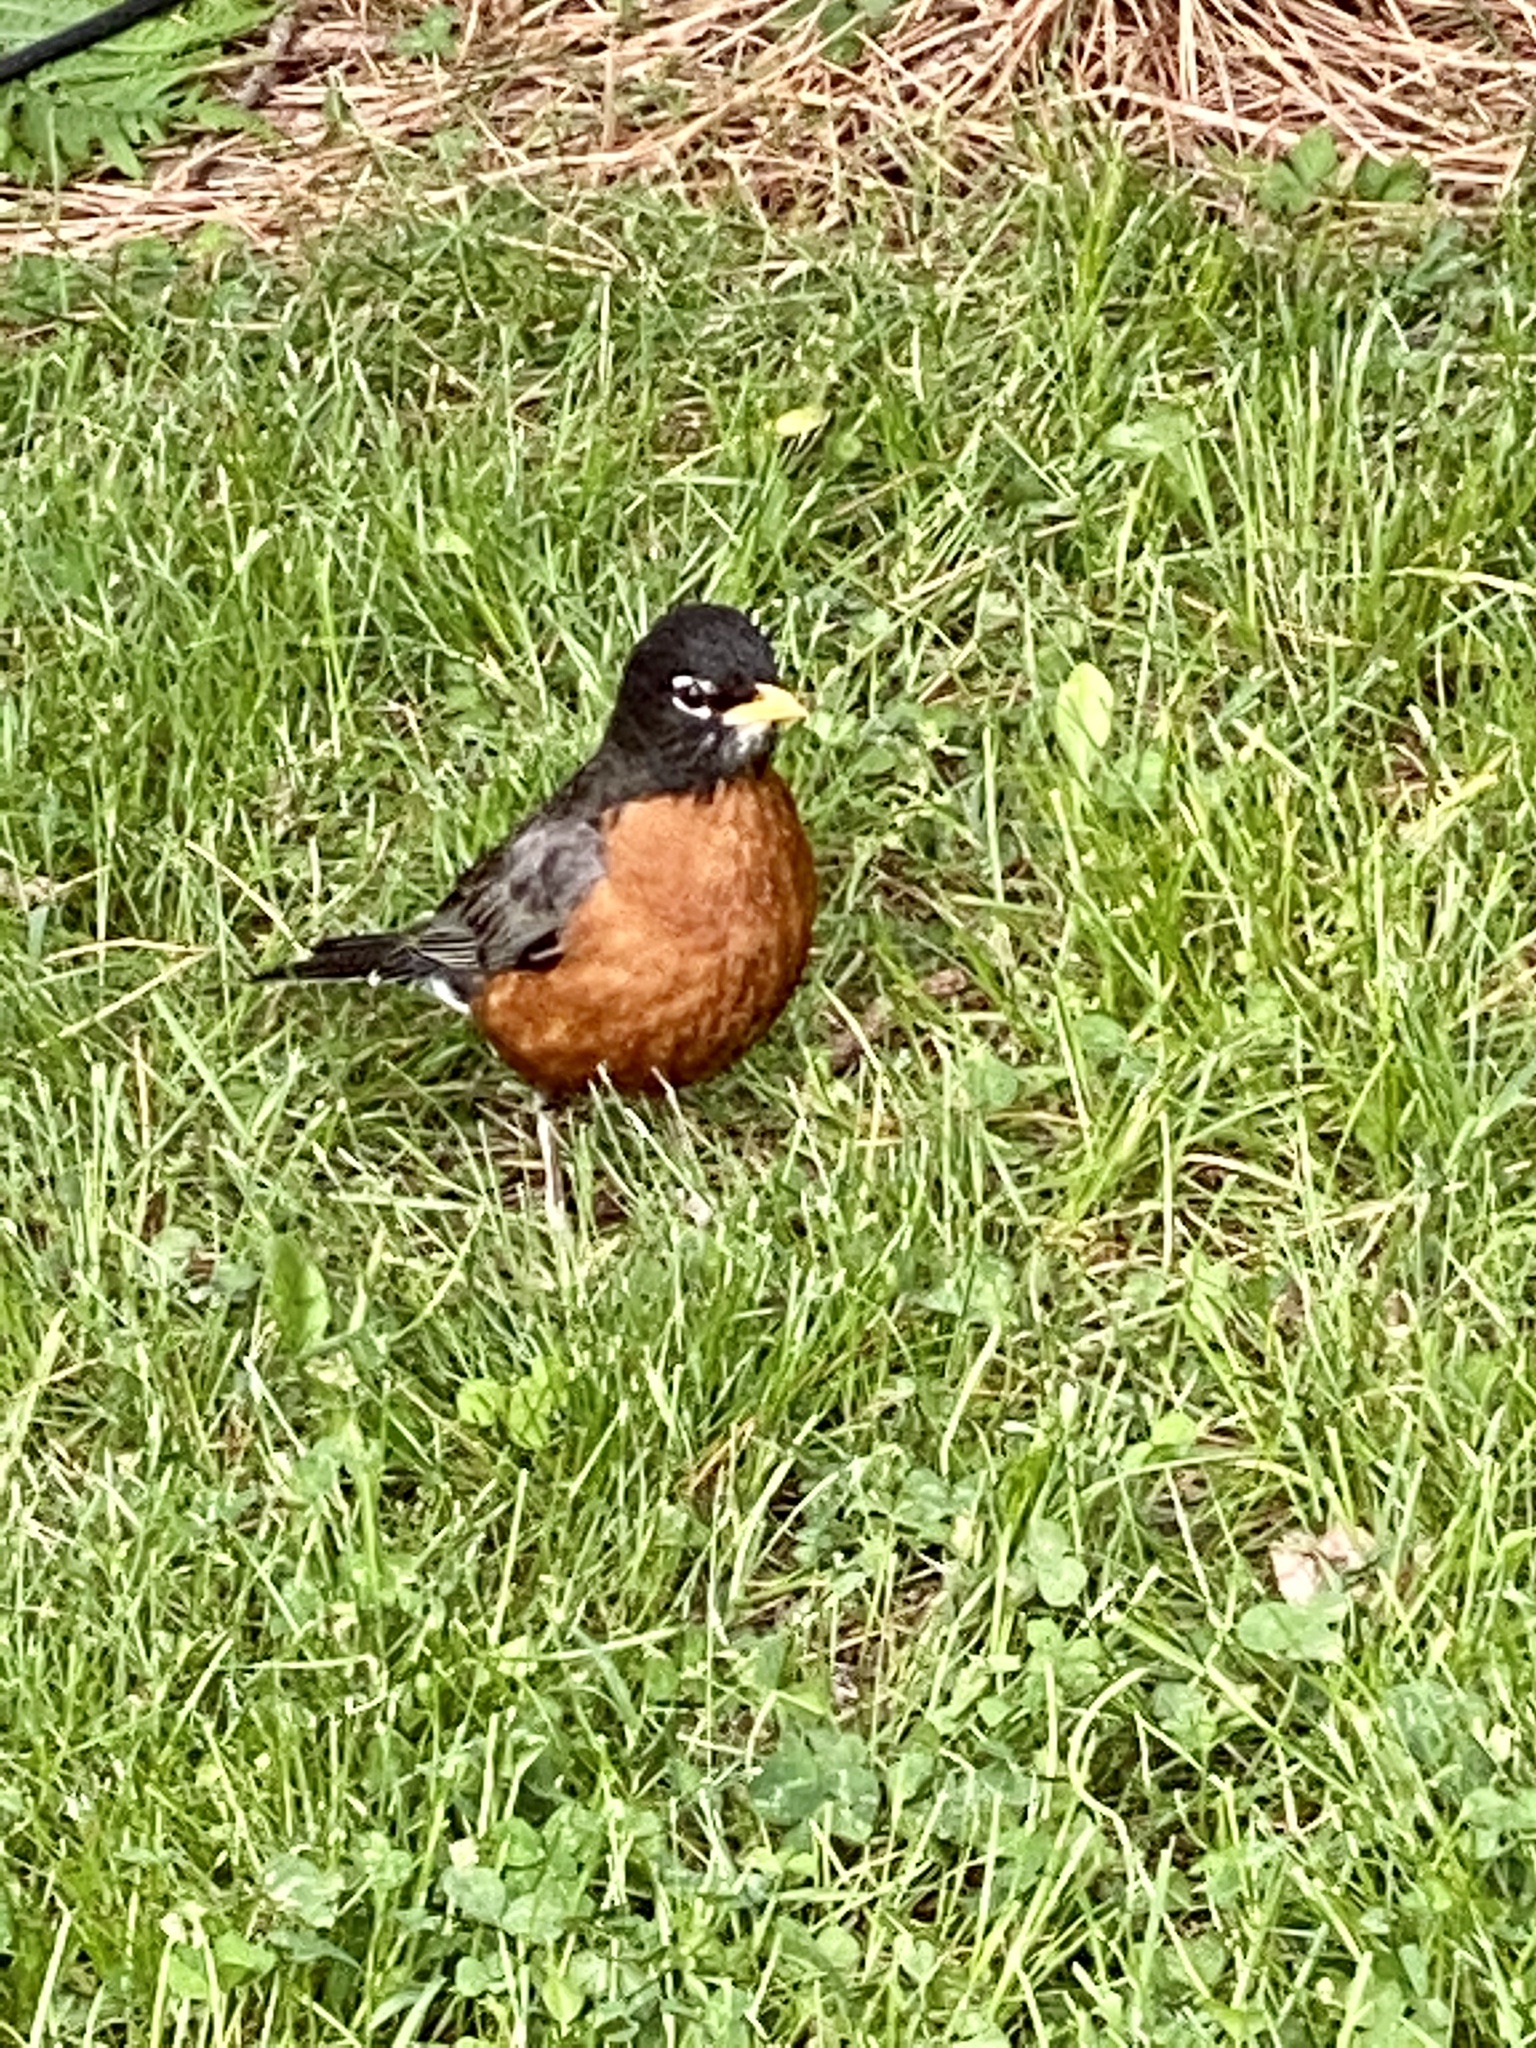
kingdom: Animalia
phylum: Chordata
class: Aves
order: Passeriformes
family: Turdidae
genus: Turdus
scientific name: Turdus migratorius
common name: American robin
